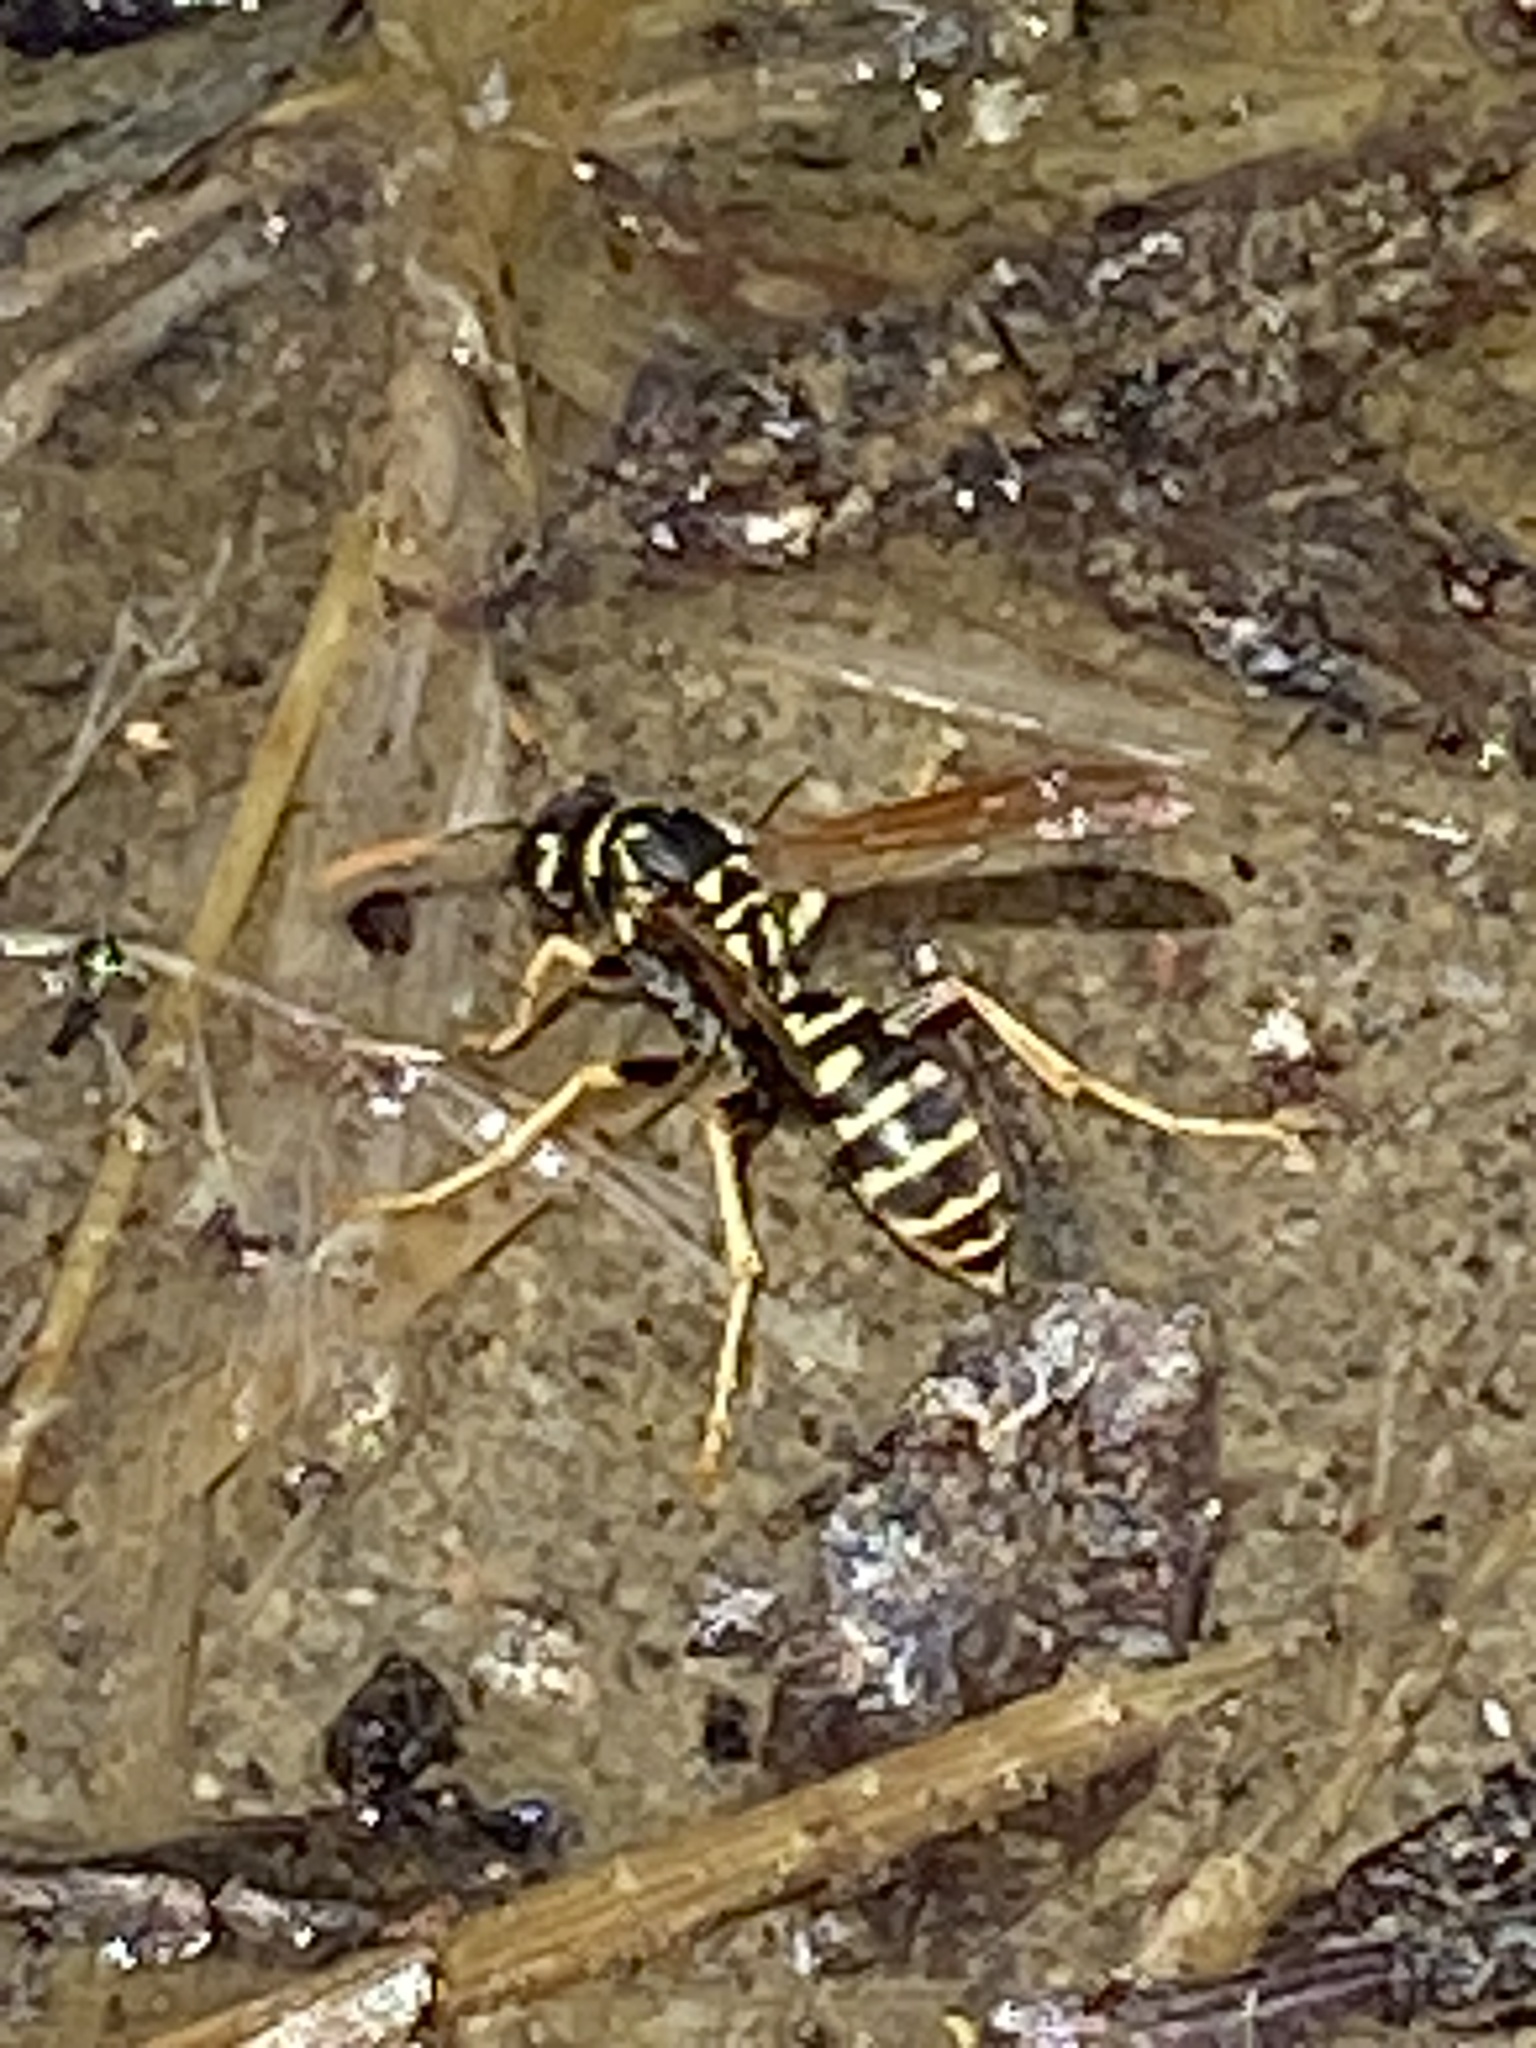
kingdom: Animalia
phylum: Arthropoda
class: Insecta
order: Hymenoptera
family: Eumenidae
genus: Polistes
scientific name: Polistes dominula
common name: Paper wasp
